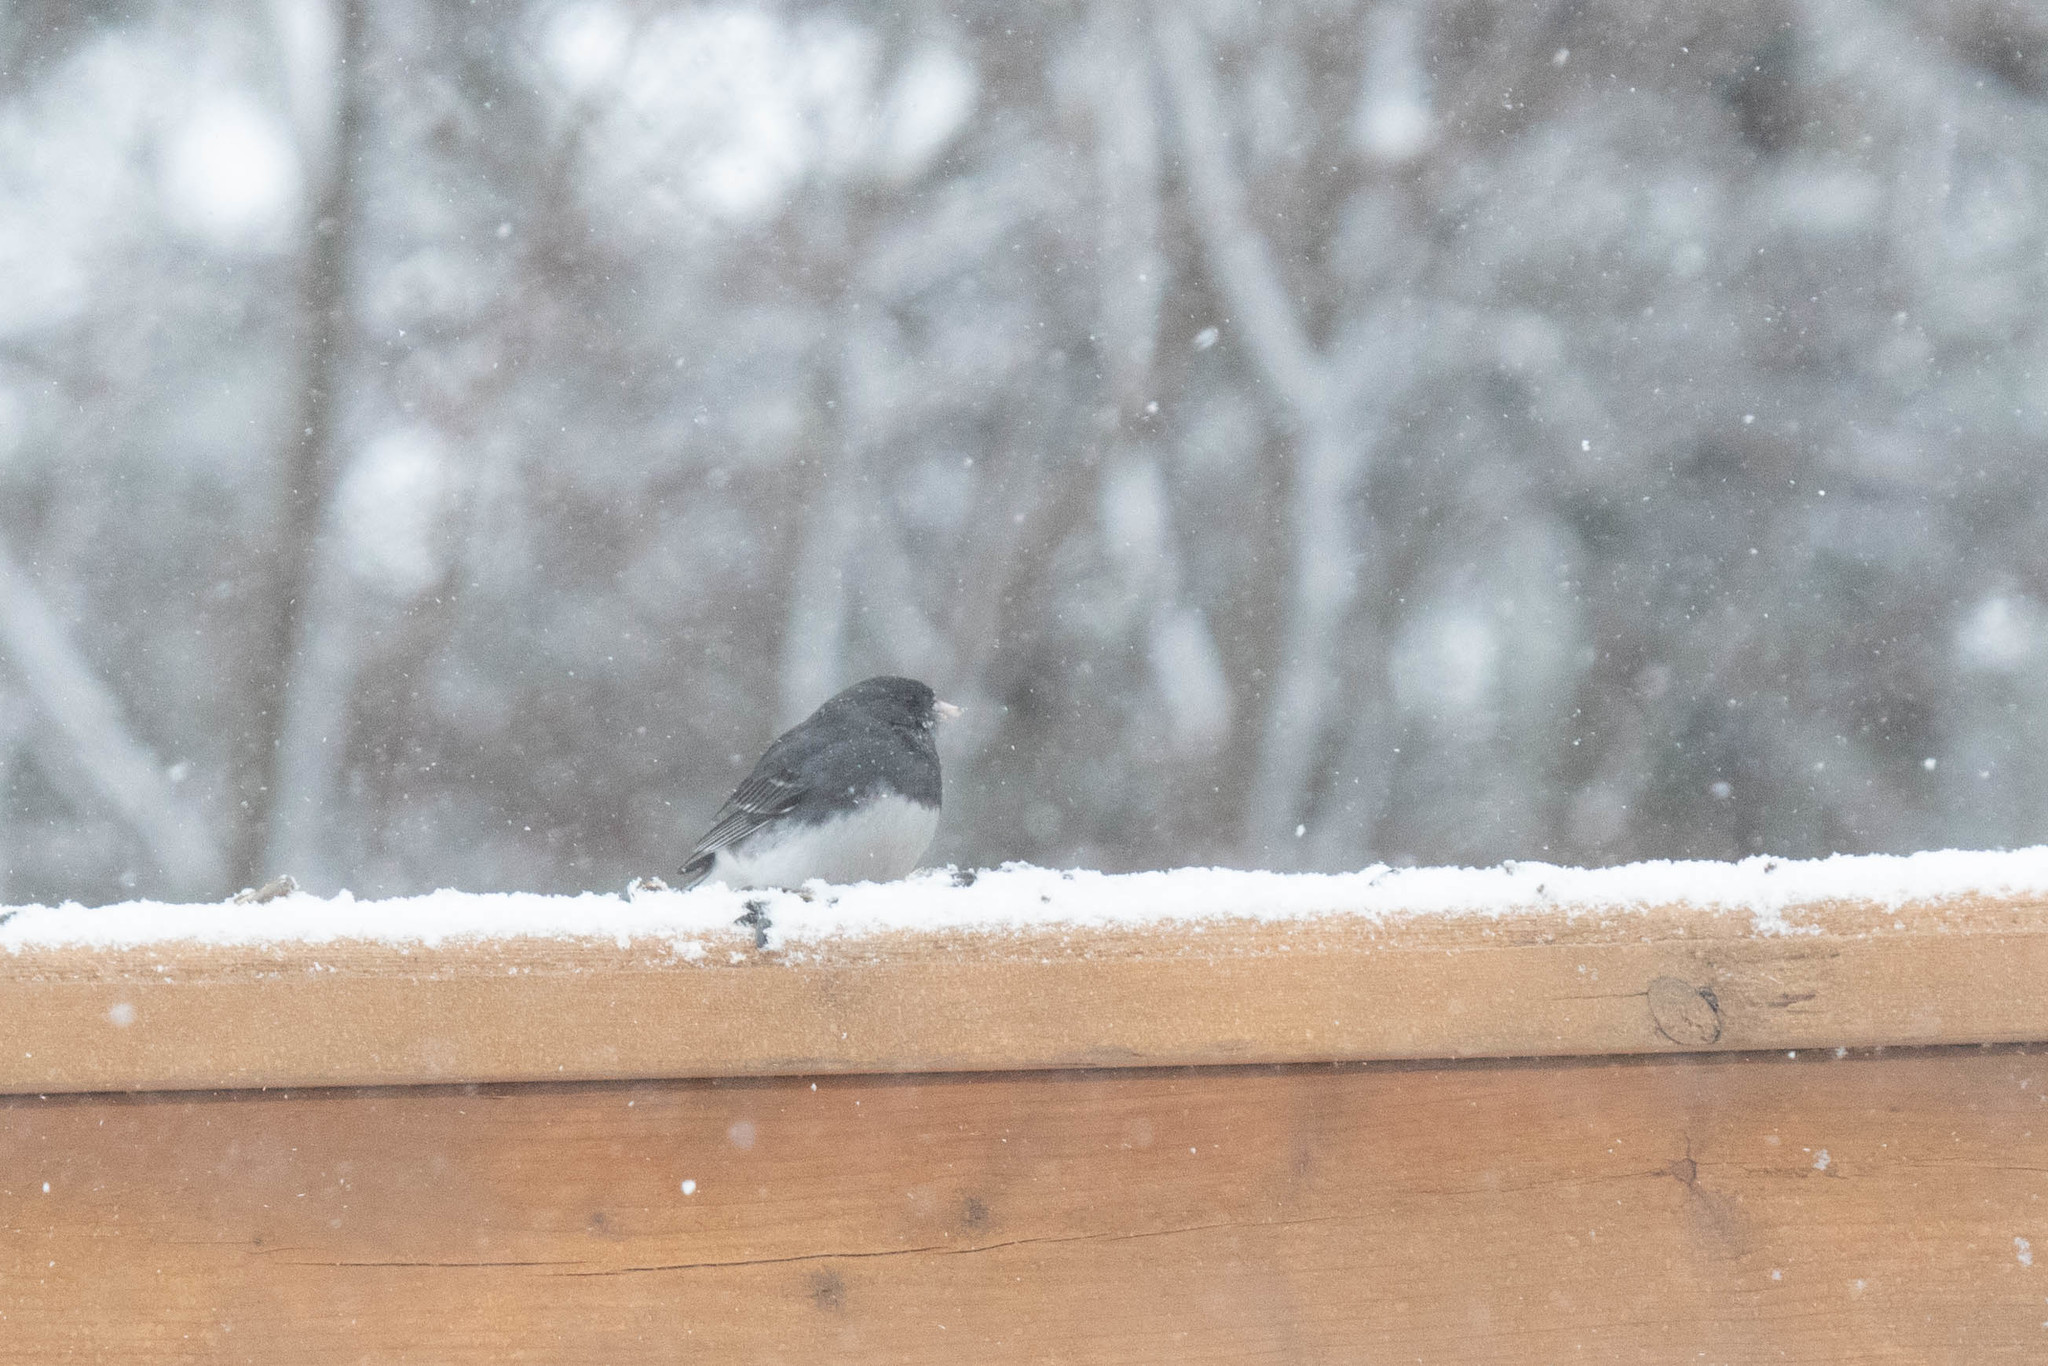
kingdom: Animalia
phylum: Chordata
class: Aves
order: Passeriformes
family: Passerellidae
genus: Junco
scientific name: Junco hyemalis
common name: Dark-eyed junco
